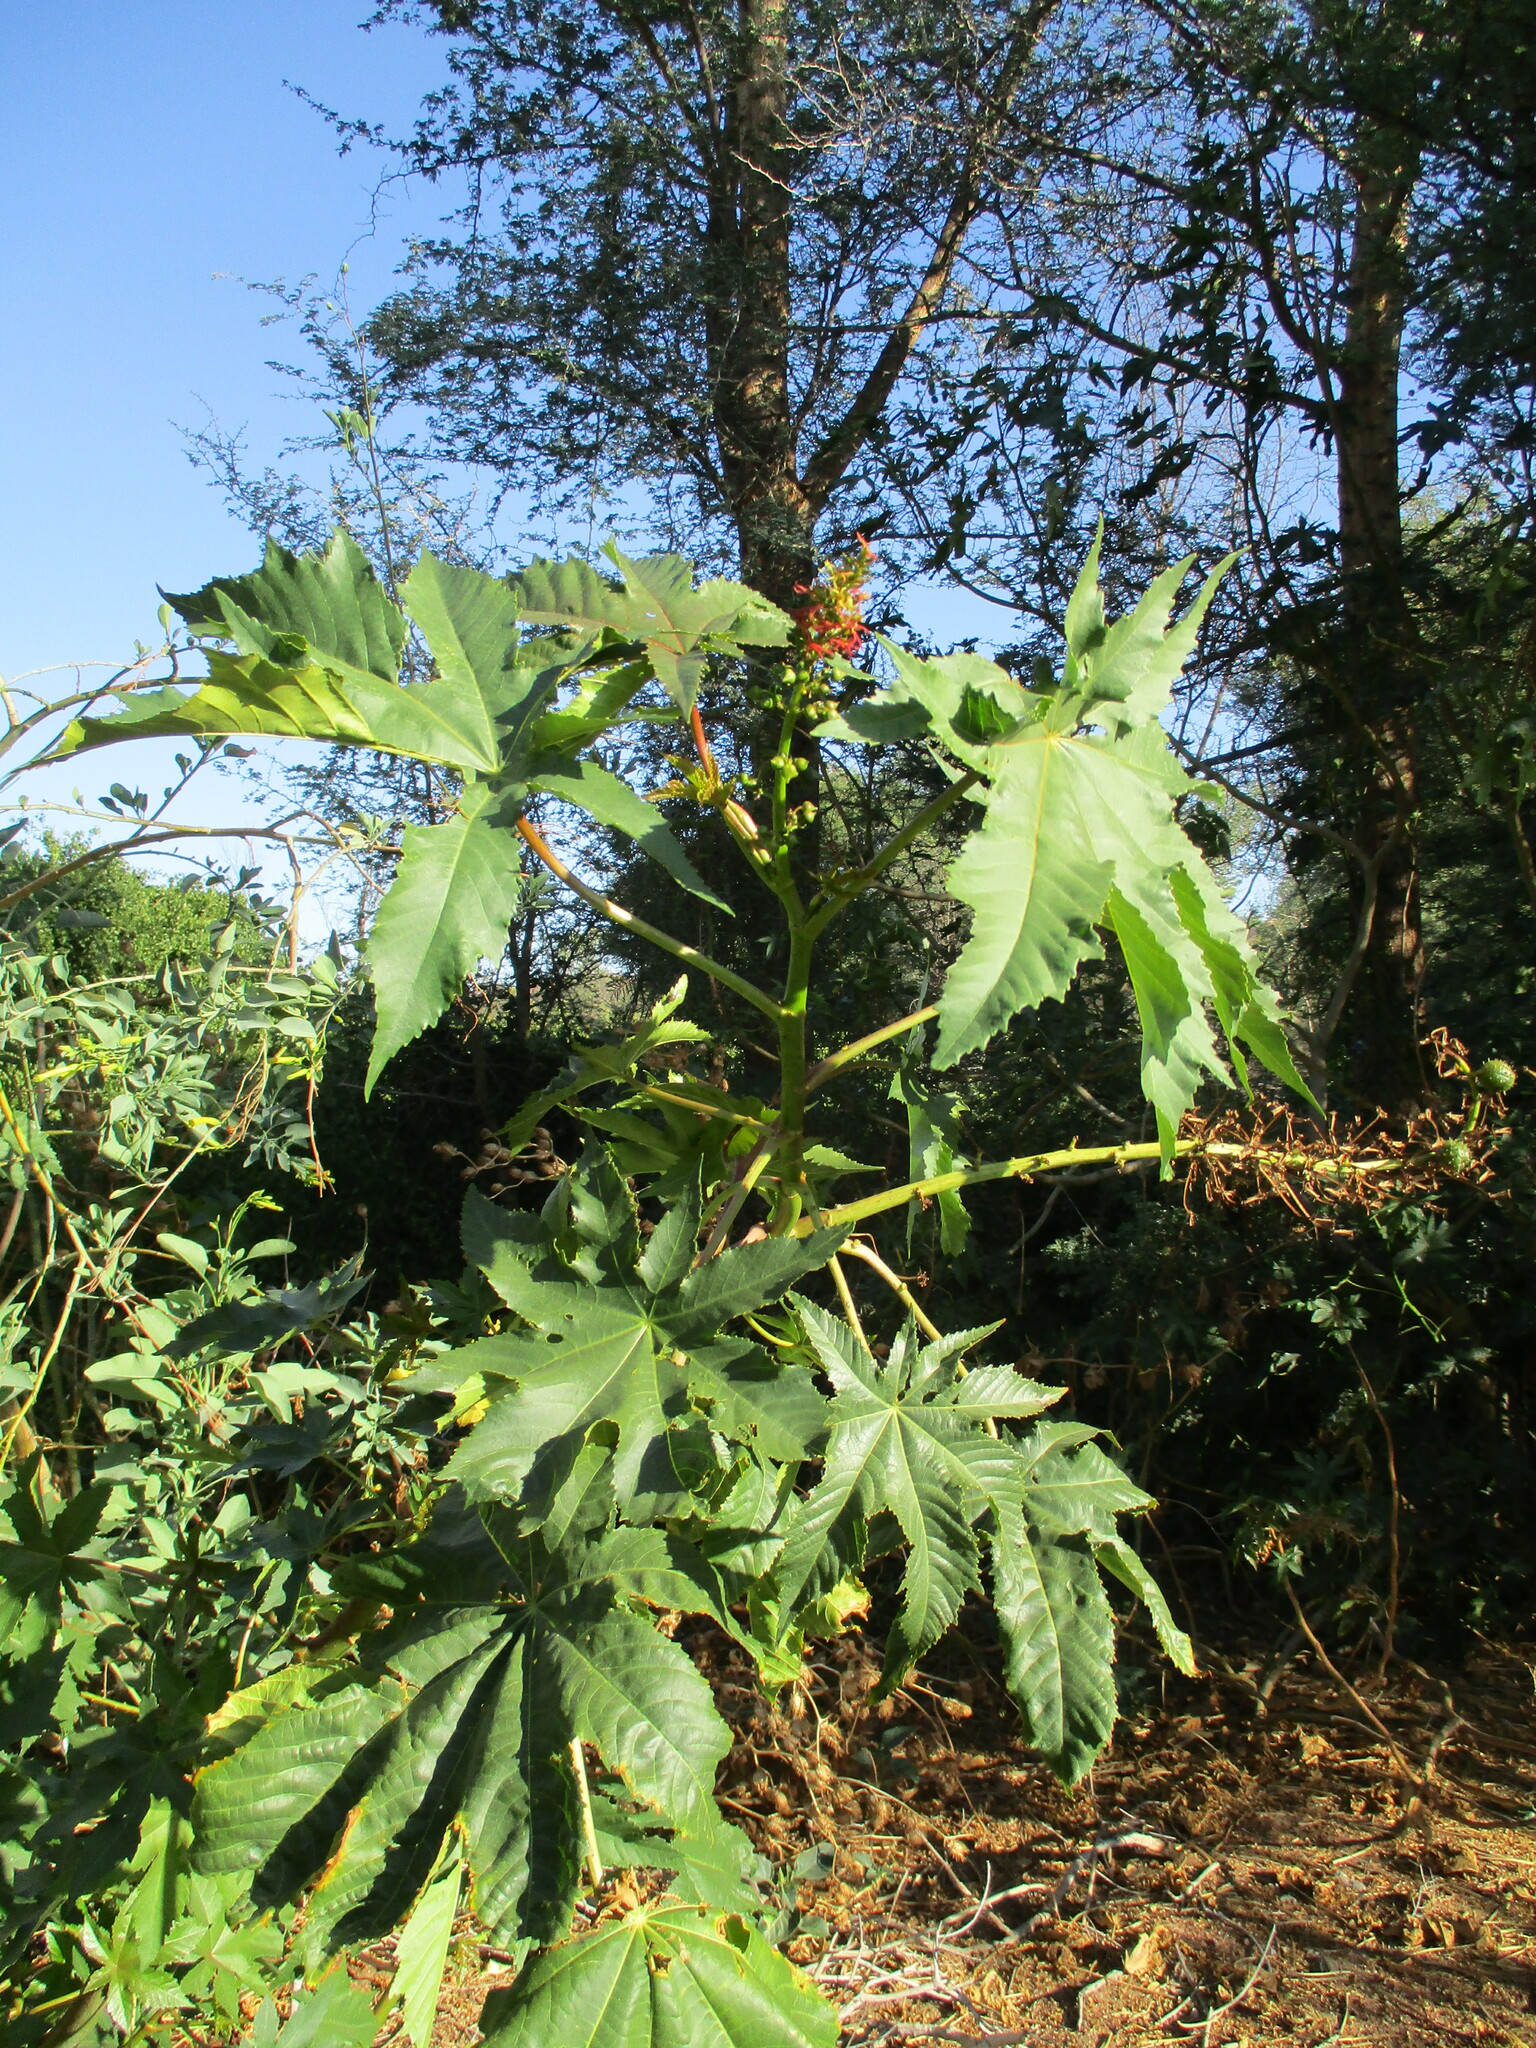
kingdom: Plantae
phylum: Tracheophyta
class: Magnoliopsida
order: Malpighiales
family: Euphorbiaceae
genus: Ricinus
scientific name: Ricinus communis
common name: Castor-oil-plant
